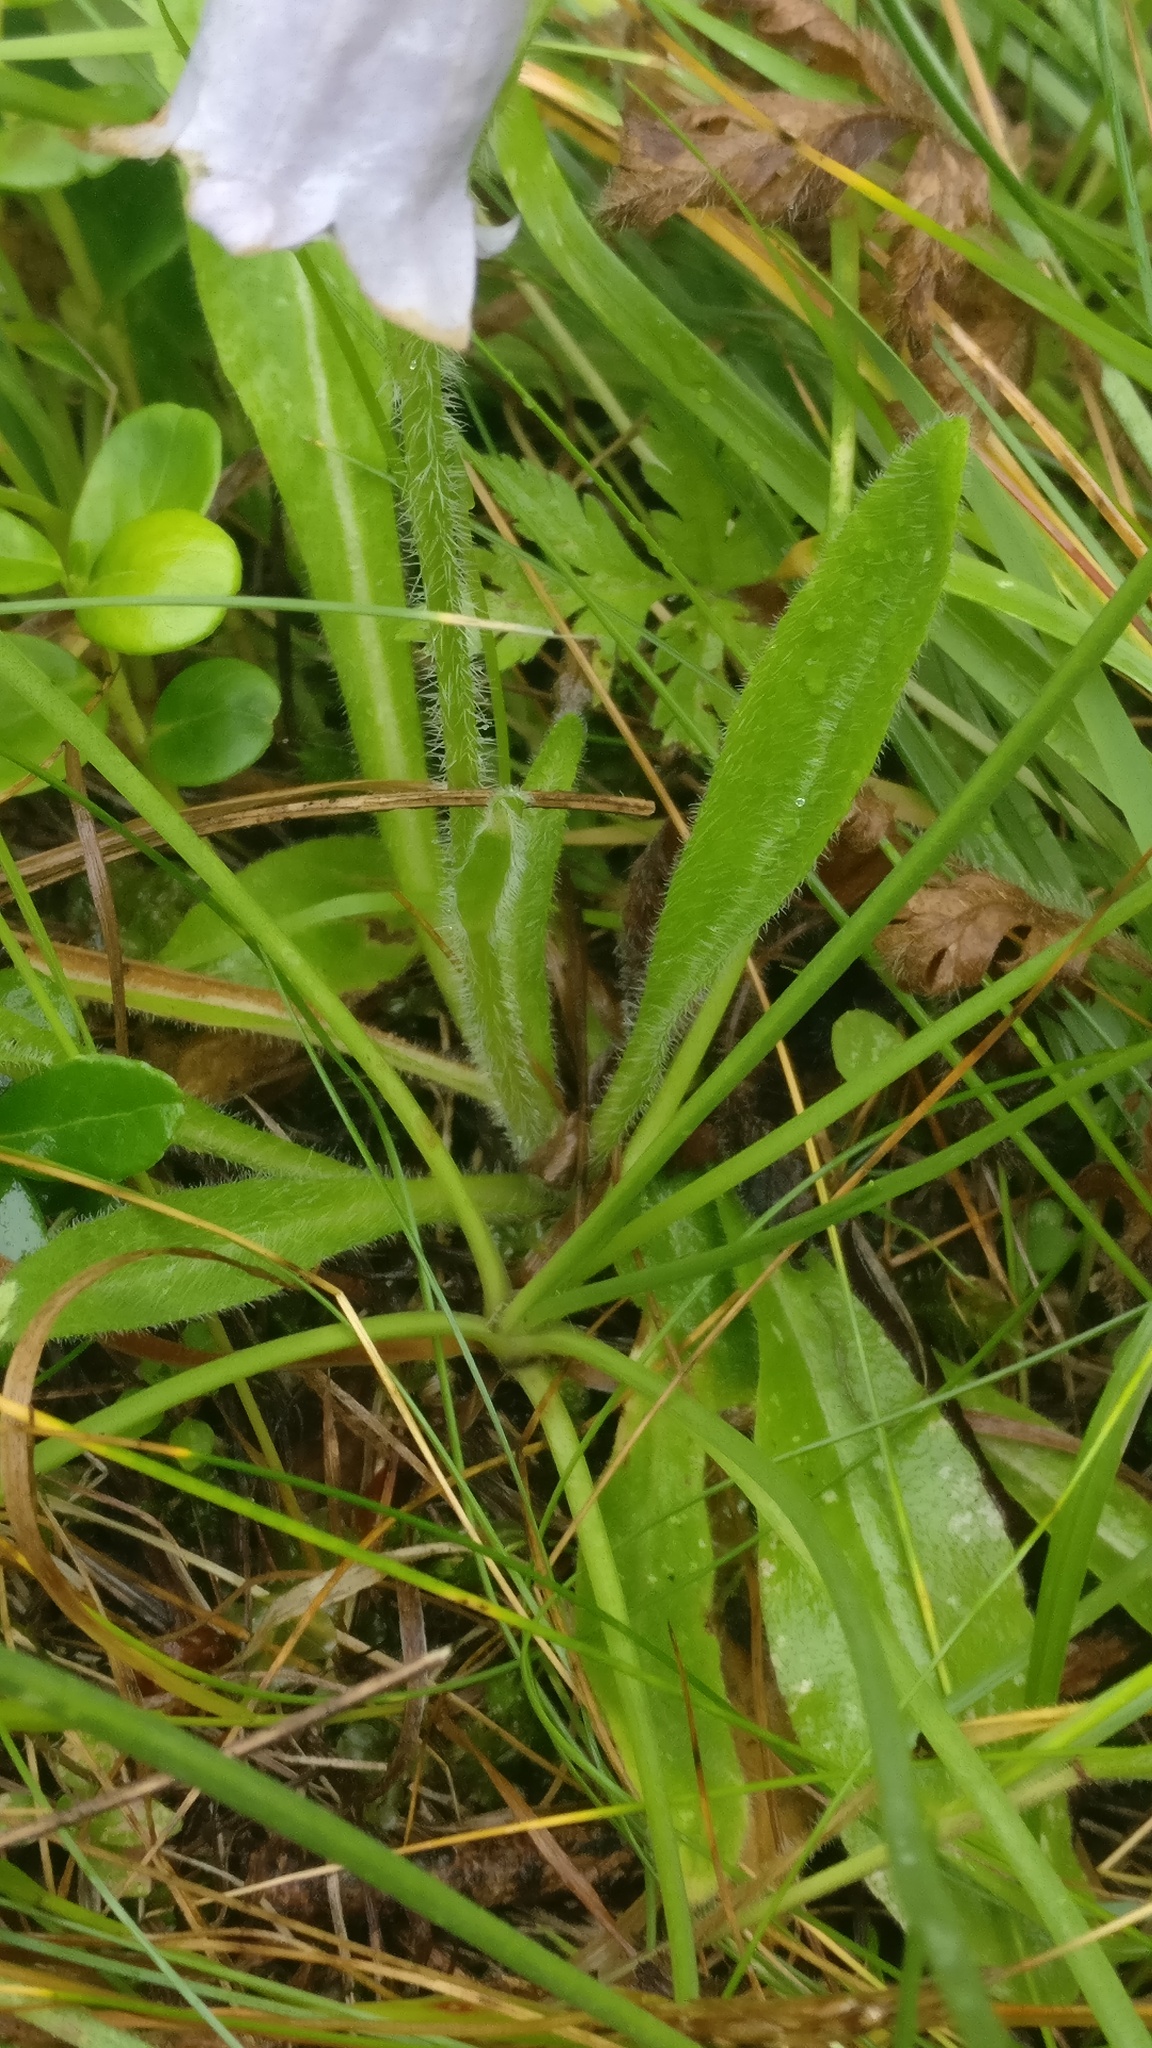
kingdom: Plantae
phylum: Tracheophyta
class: Magnoliopsida
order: Asterales
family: Campanulaceae
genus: Campanula
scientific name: Campanula barbata
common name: Bearded bellflower
